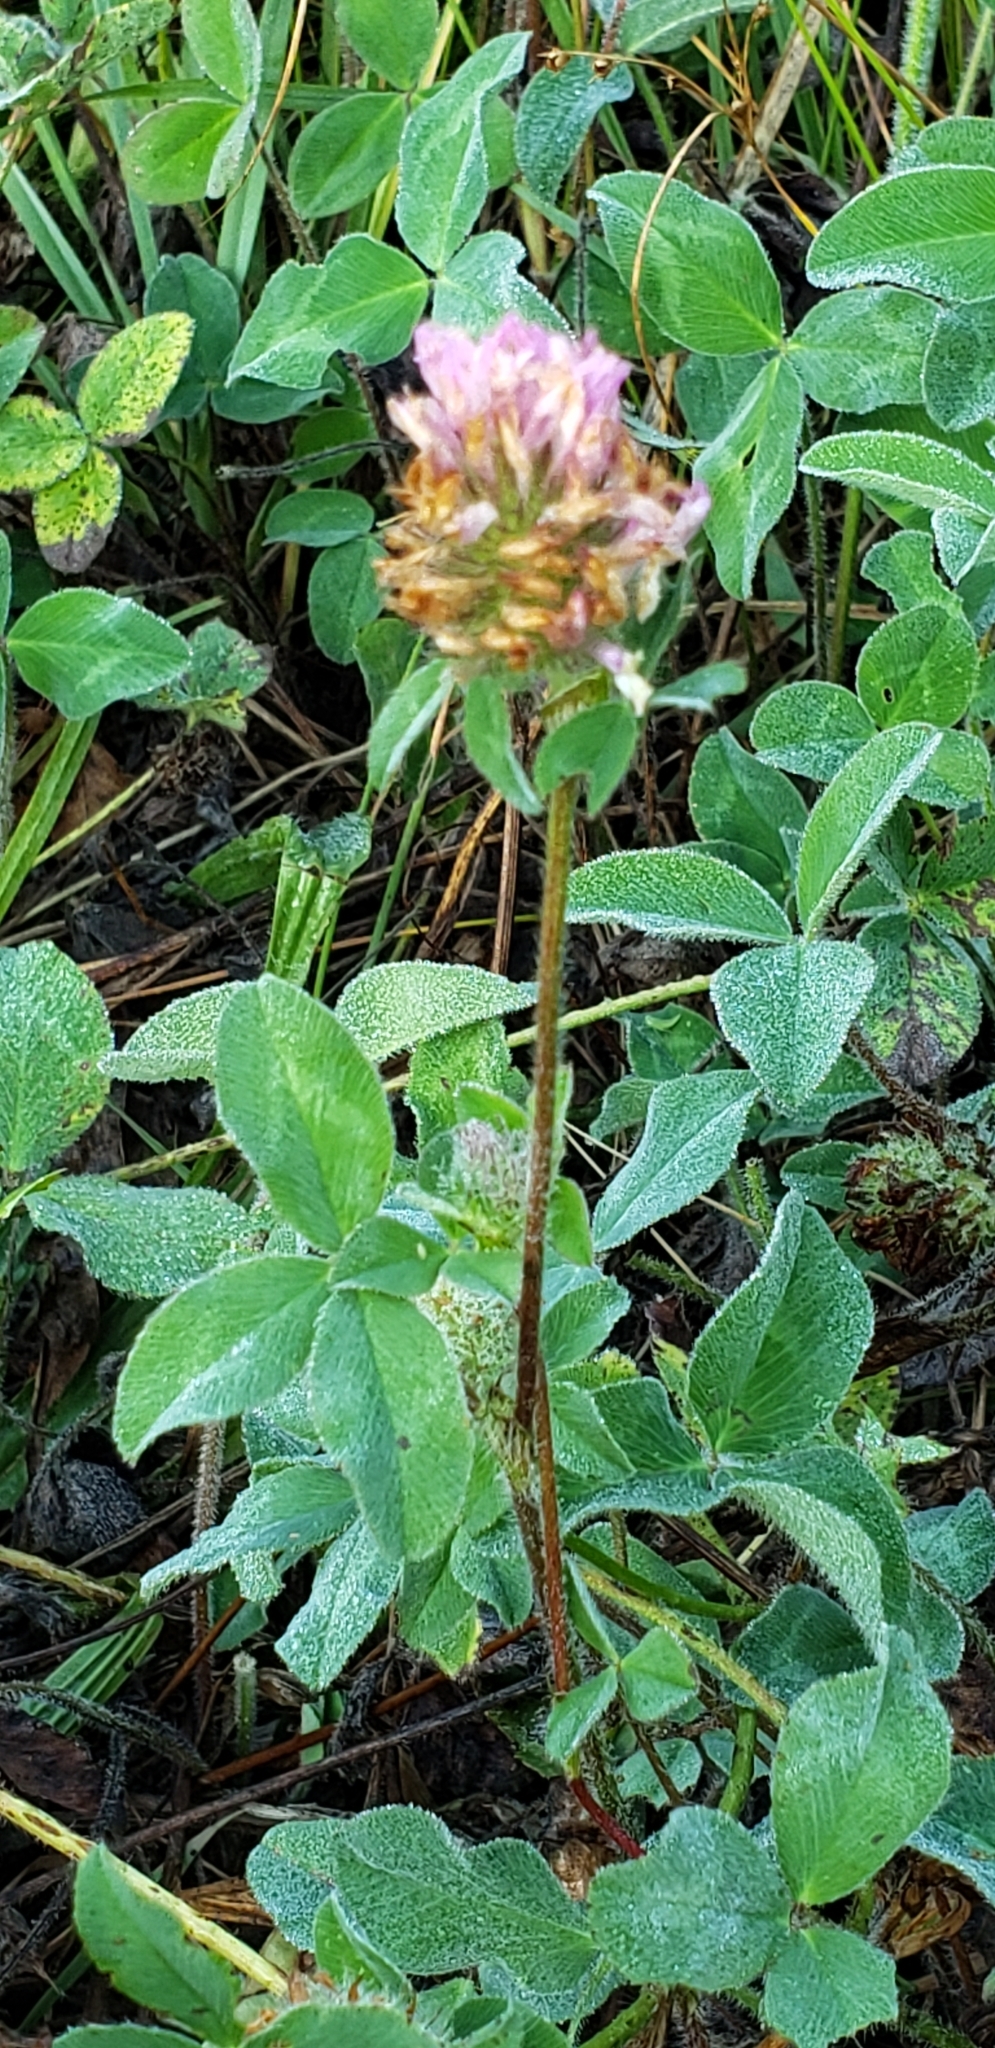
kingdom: Plantae
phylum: Tracheophyta
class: Magnoliopsida
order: Fabales
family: Fabaceae
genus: Trifolium
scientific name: Trifolium pratense
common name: Red clover
